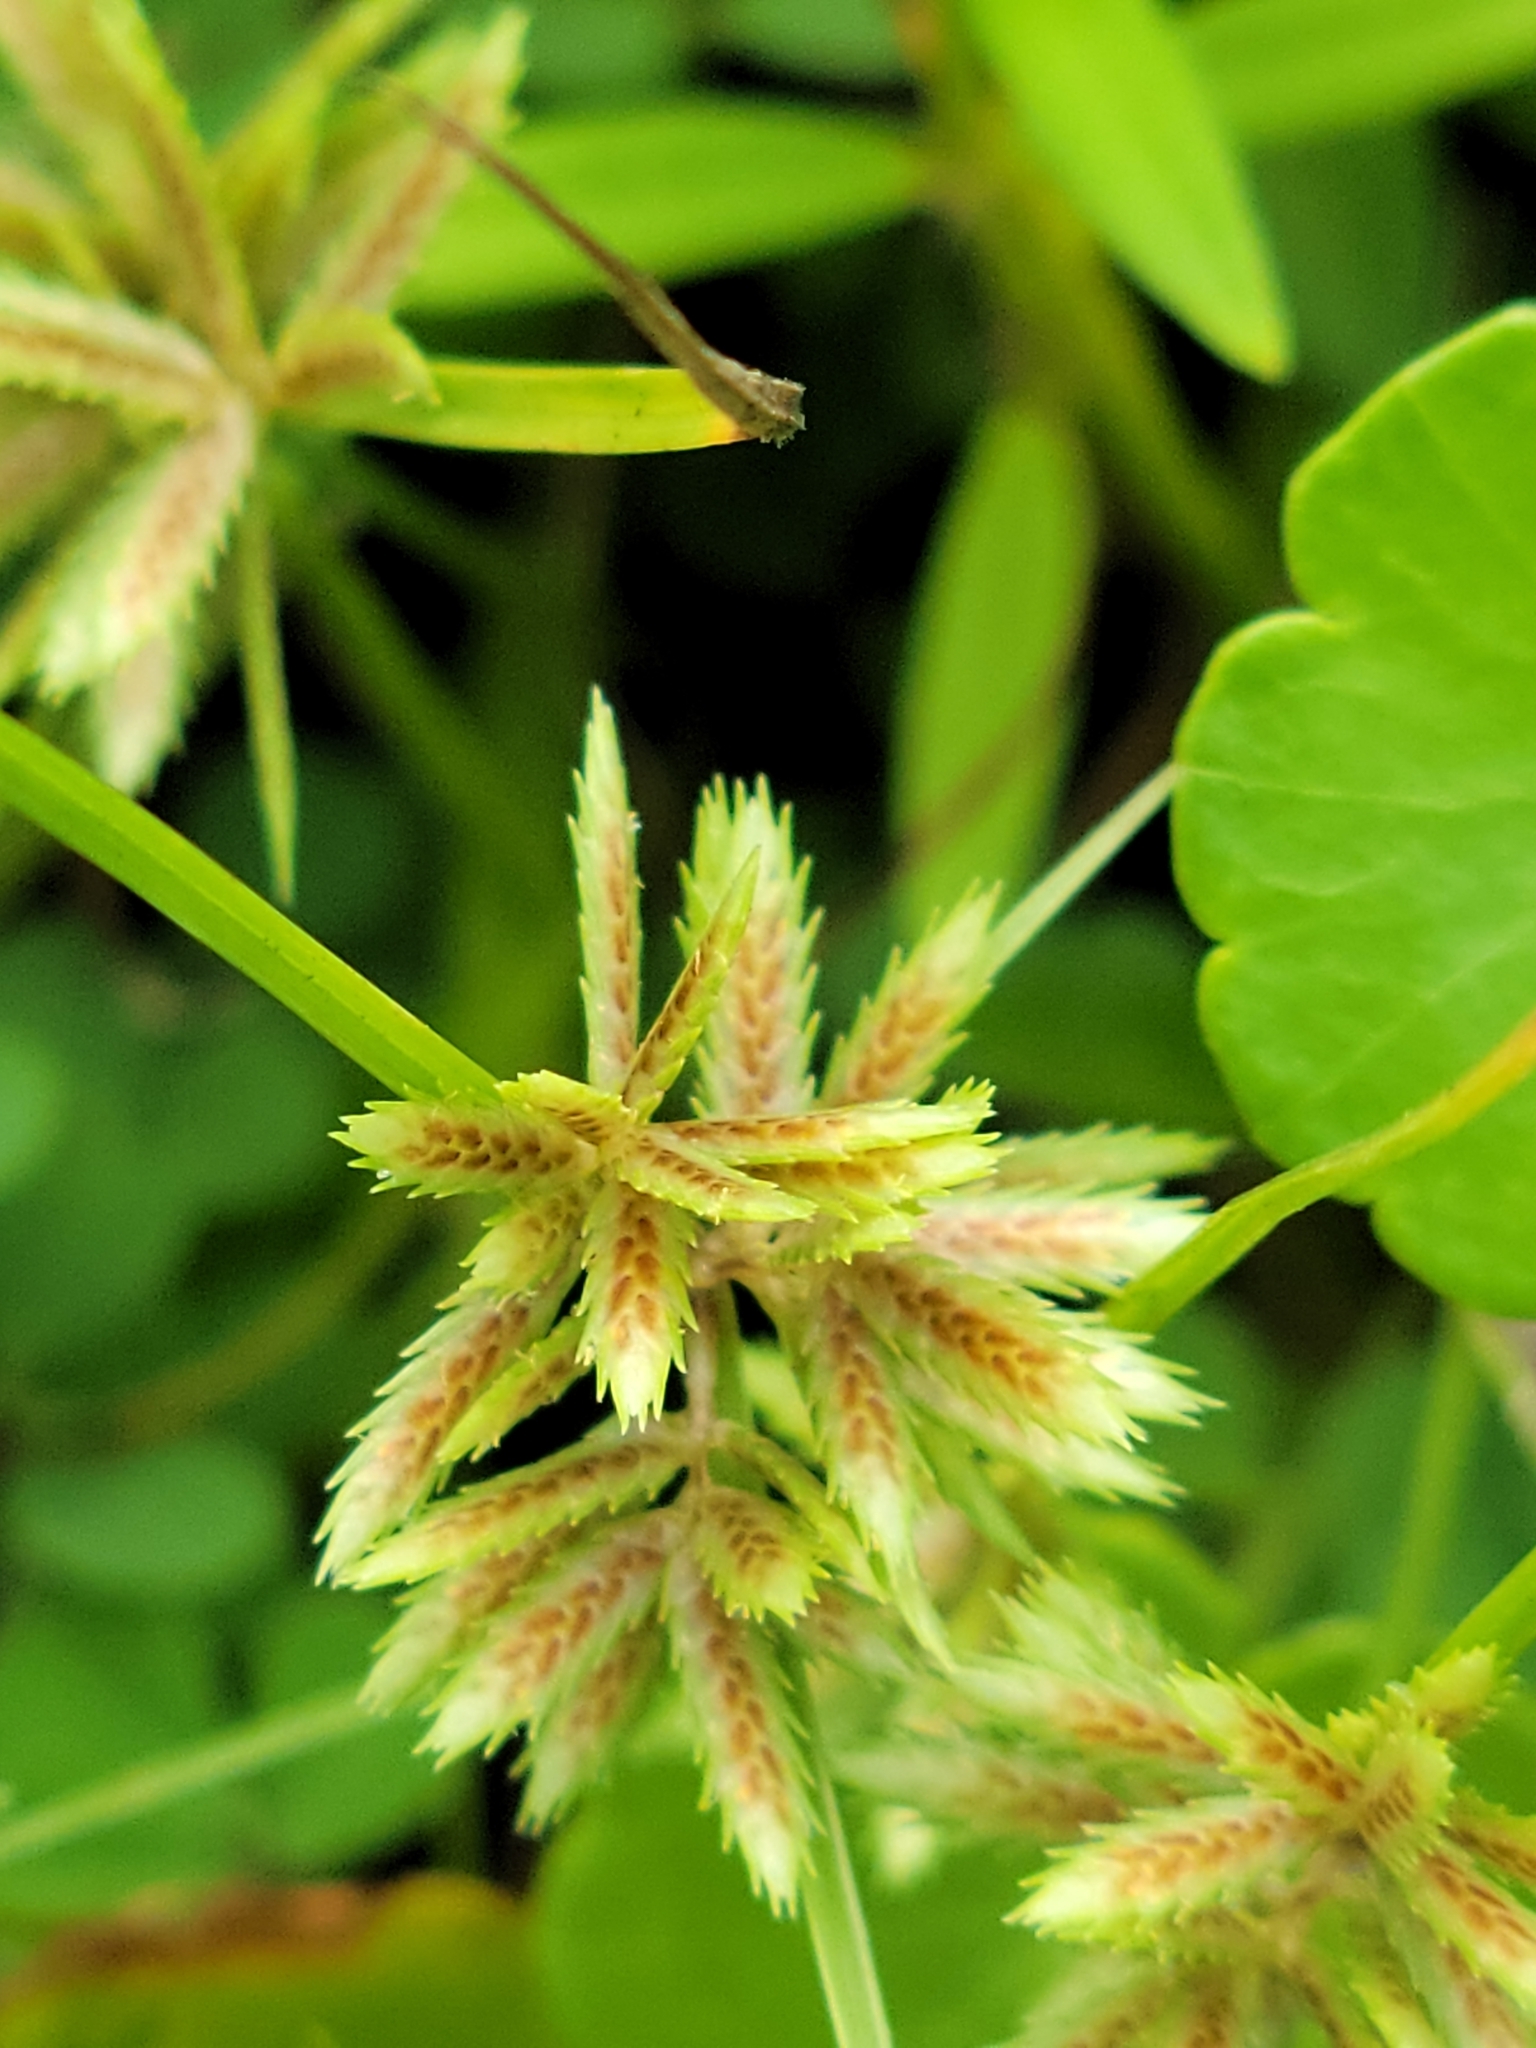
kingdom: Plantae
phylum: Tracheophyta
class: Liliopsida
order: Poales
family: Cyperaceae
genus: Cyperus
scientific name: Cyperus pumilus
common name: Low flatsedge
